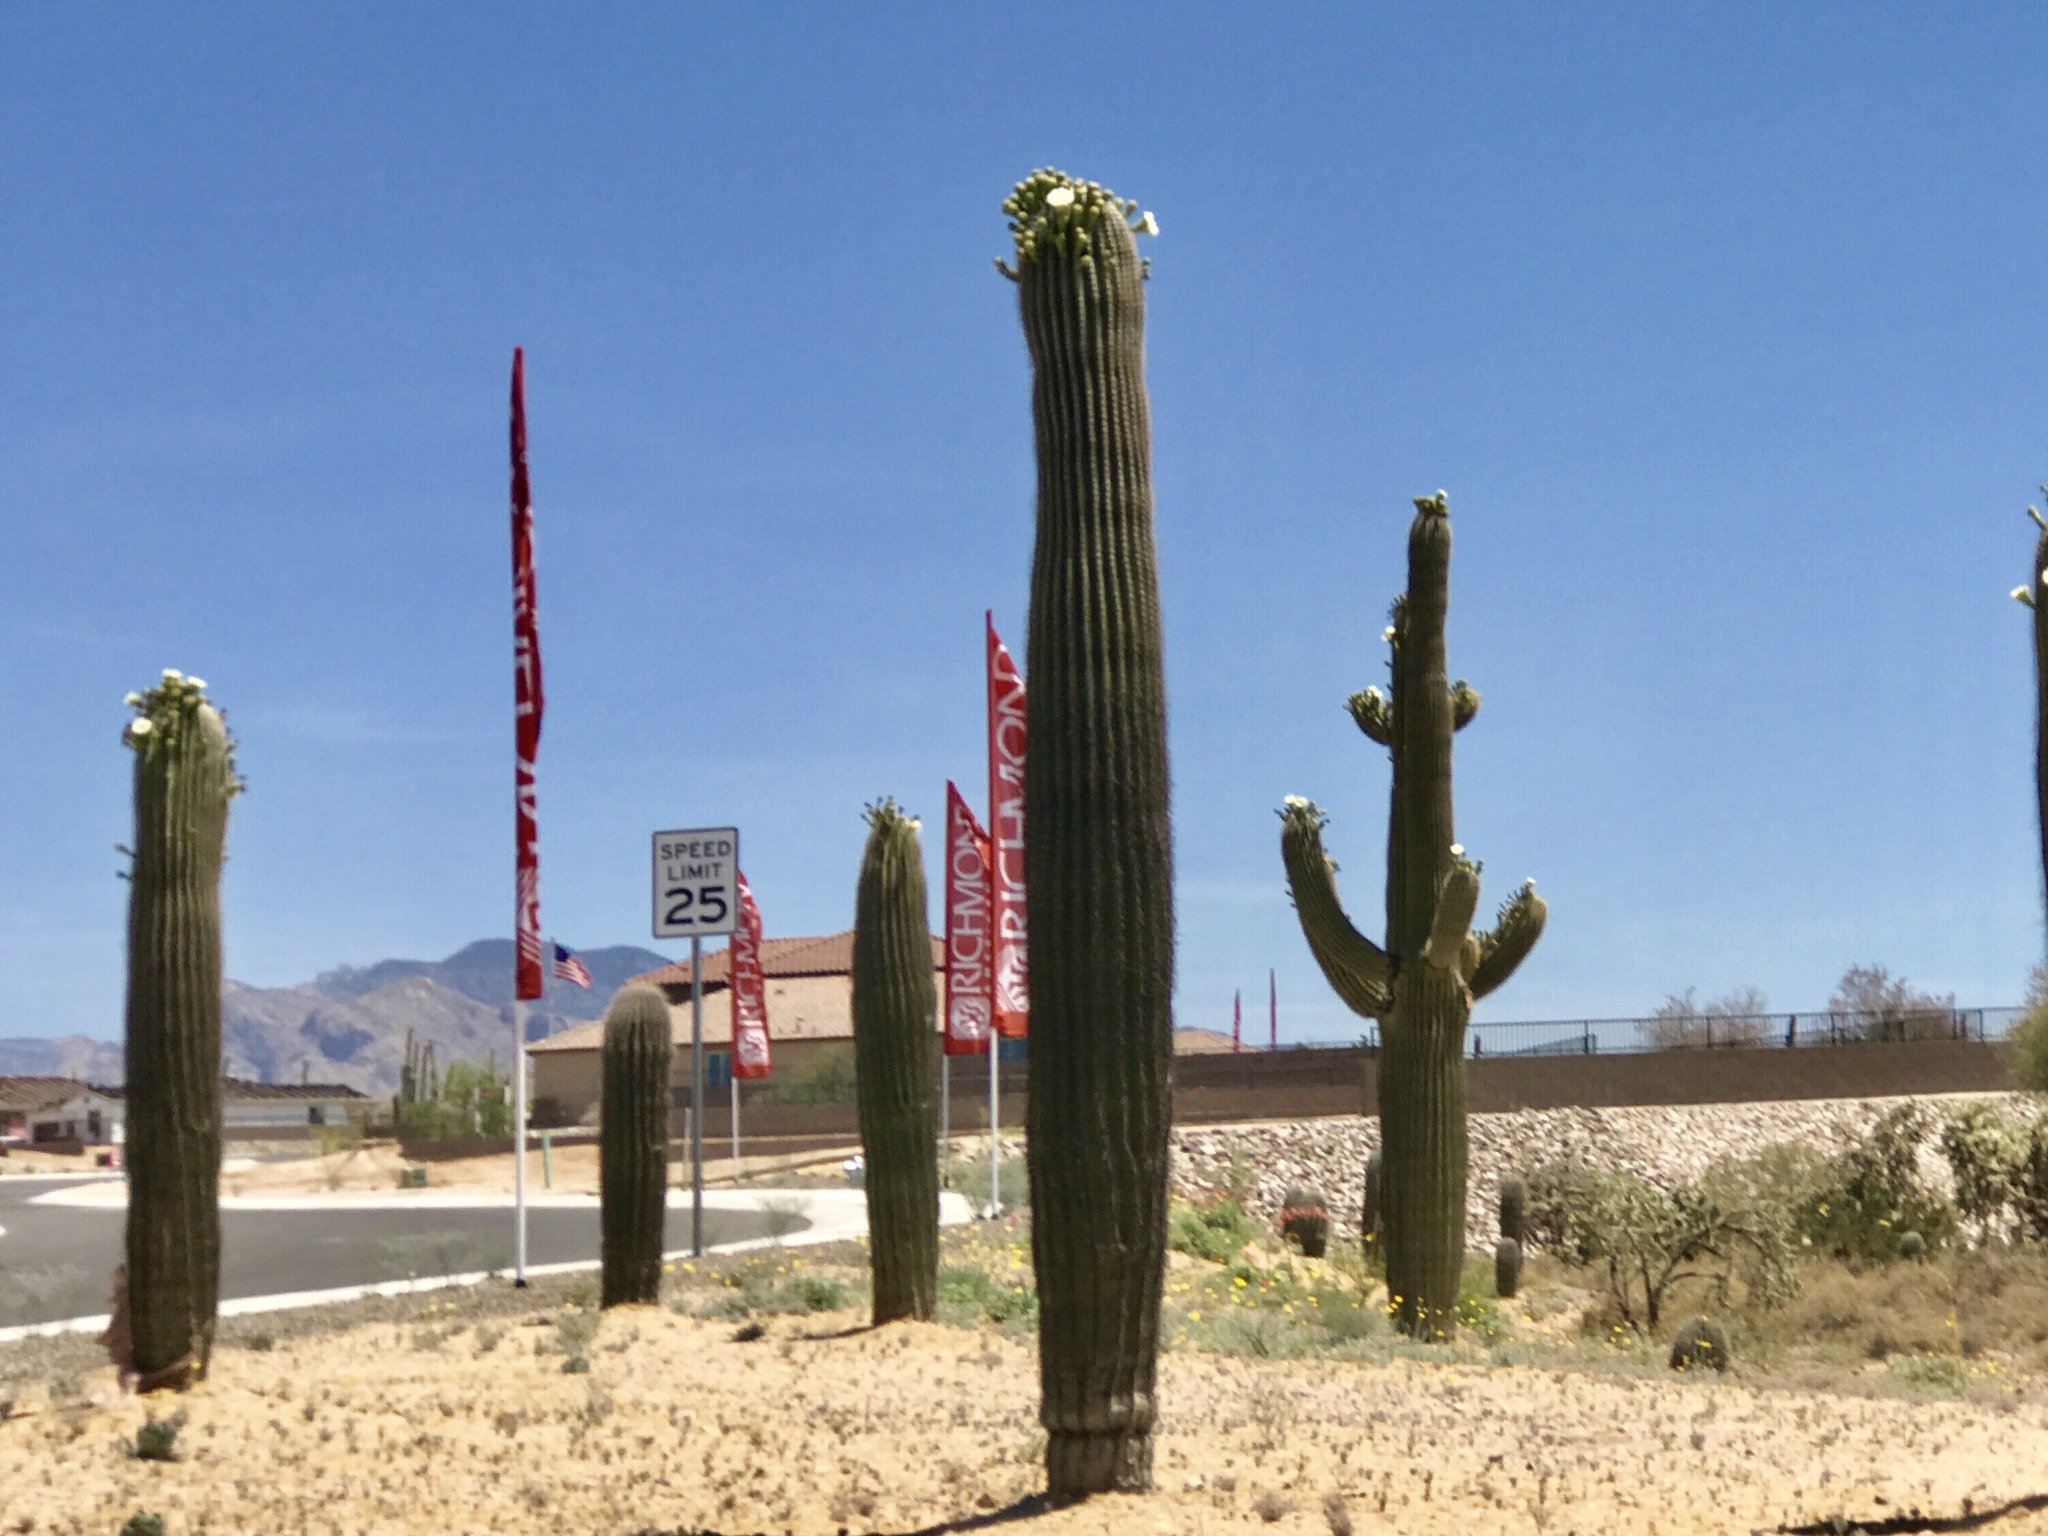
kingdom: Plantae
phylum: Tracheophyta
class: Magnoliopsida
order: Caryophyllales
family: Cactaceae
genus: Carnegiea
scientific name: Carnegiea gigantea
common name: Saguaro
